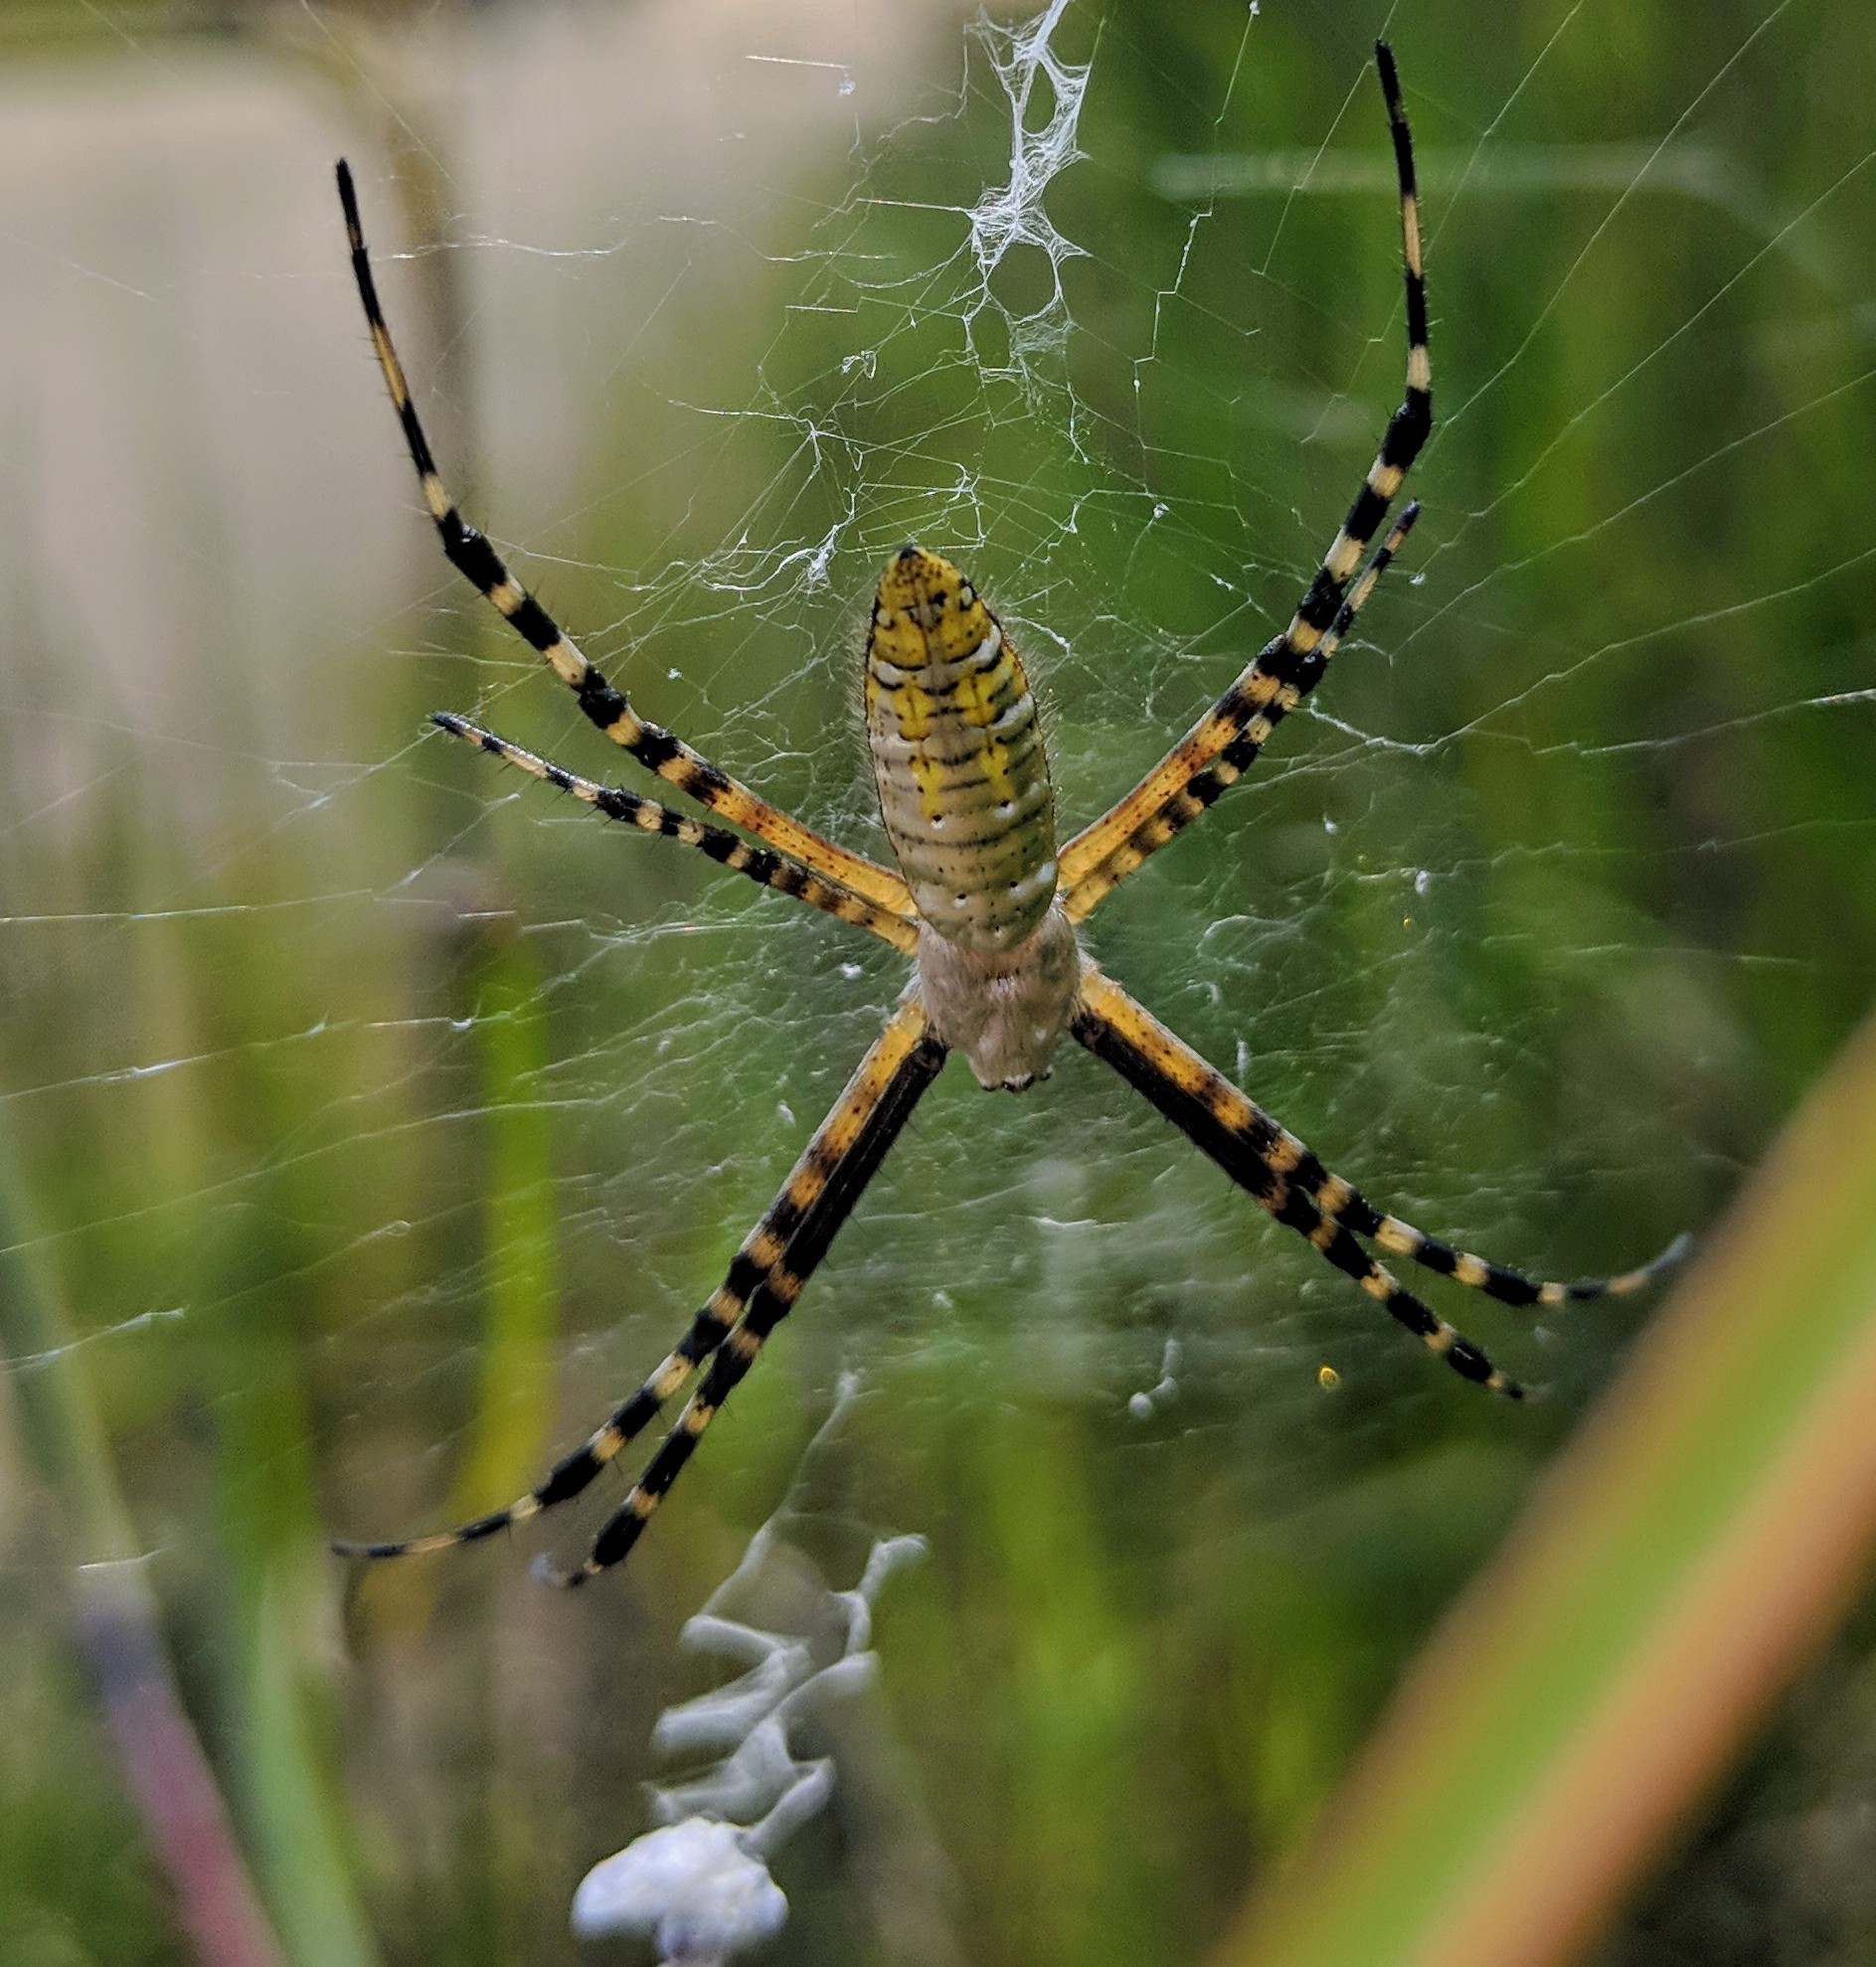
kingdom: Animalia
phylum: Arthropoda
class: Arachnida
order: Araneae
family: Araneidae
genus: Argiope
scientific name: Argiope trifasciata
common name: Banded garden spider
